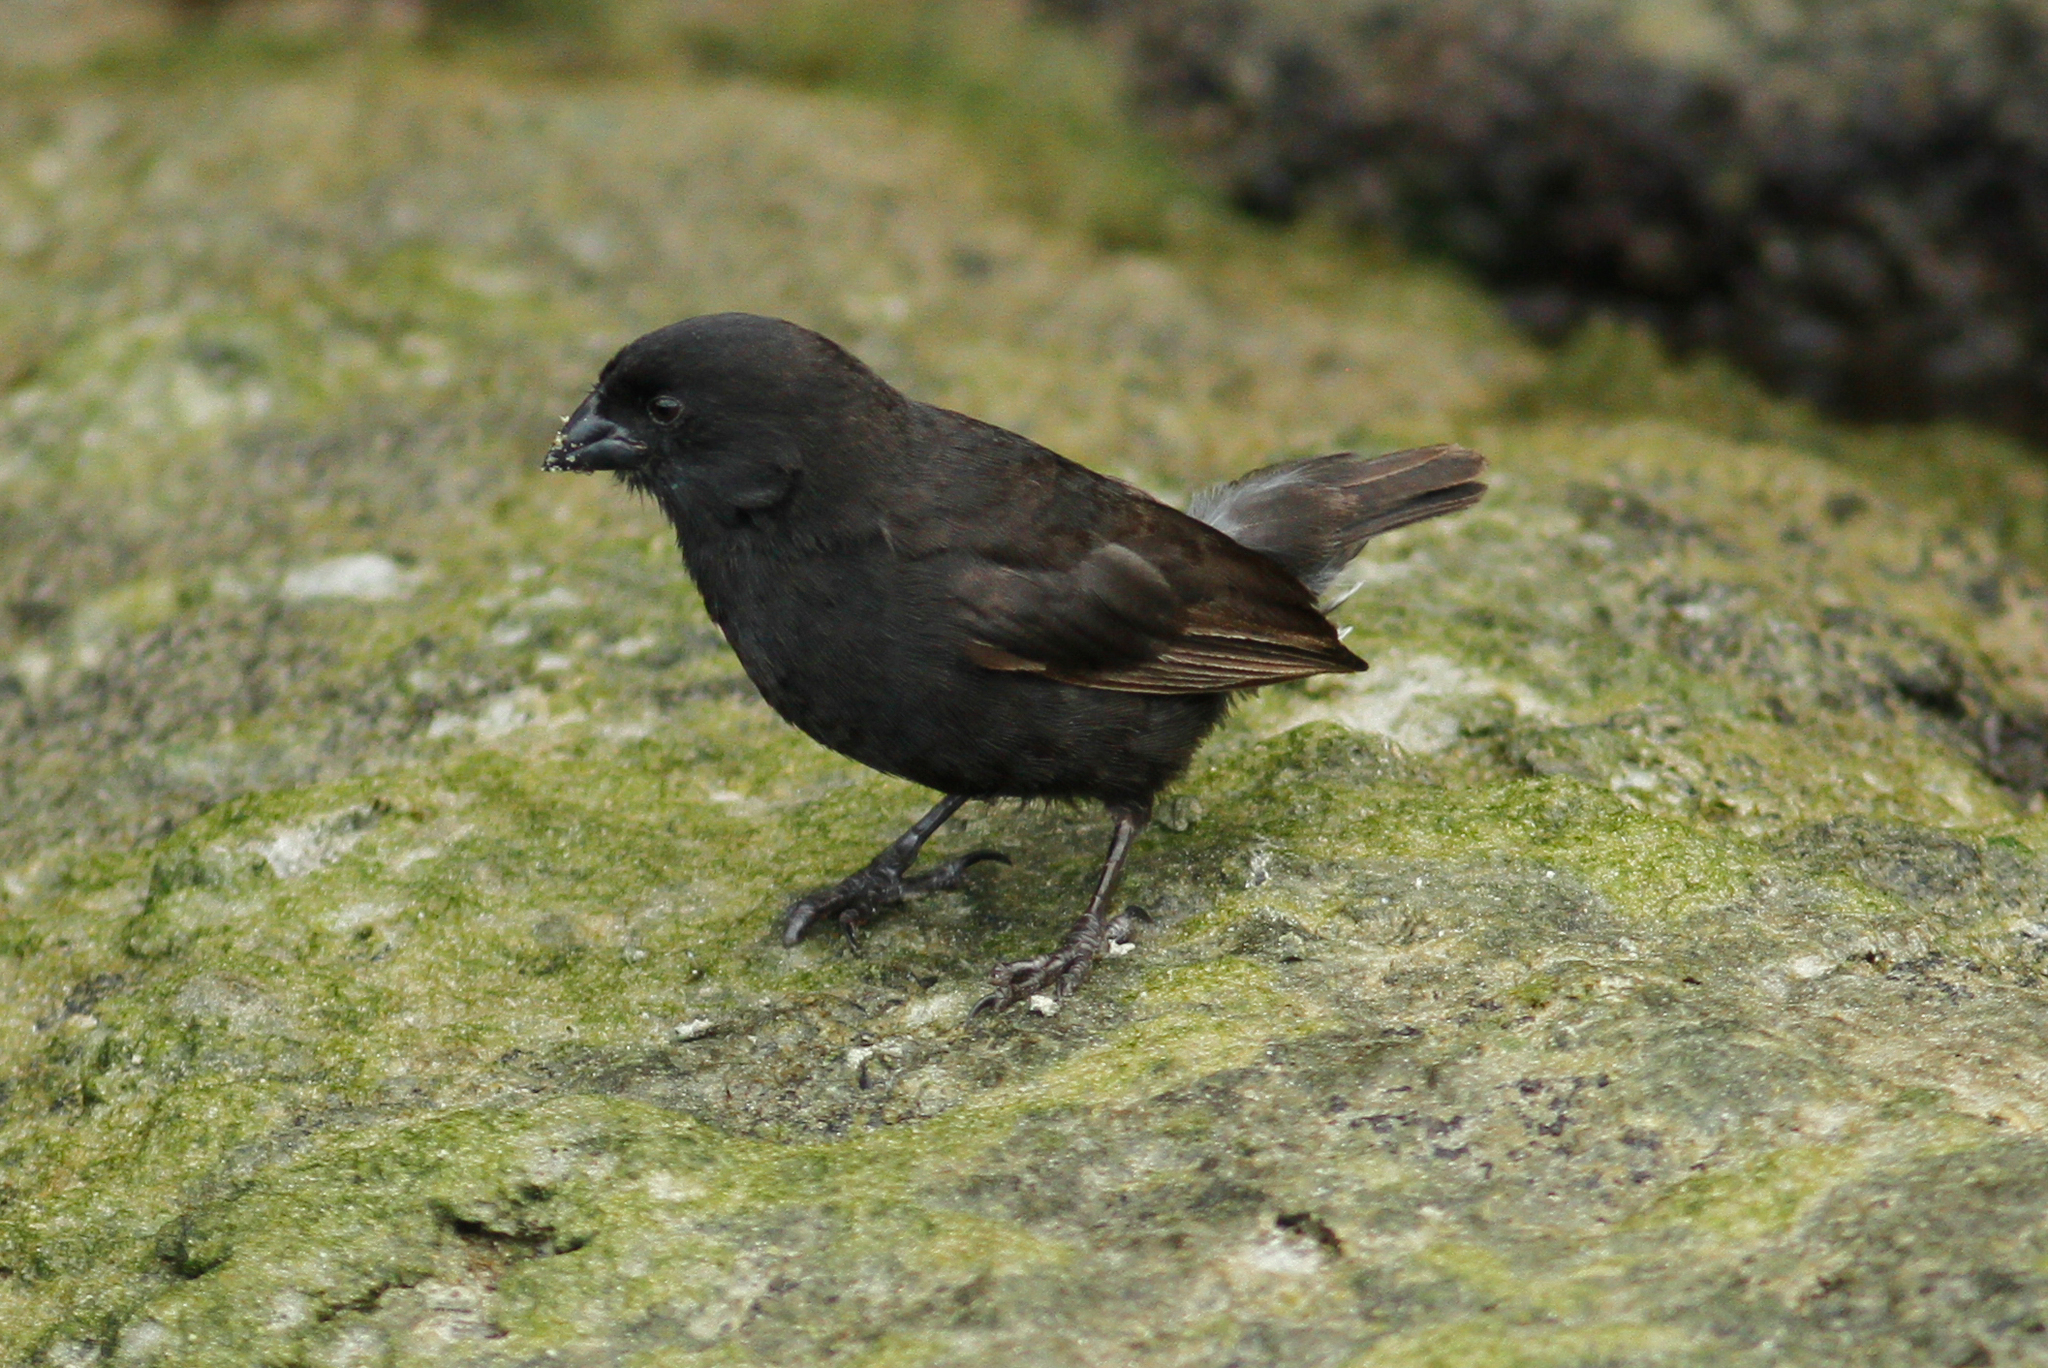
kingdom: Animalia
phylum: Chordata
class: Aves
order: Passeriformes
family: Thraupidae
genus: Geospiza
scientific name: Geospiza fuliginosa
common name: Small ground finch
